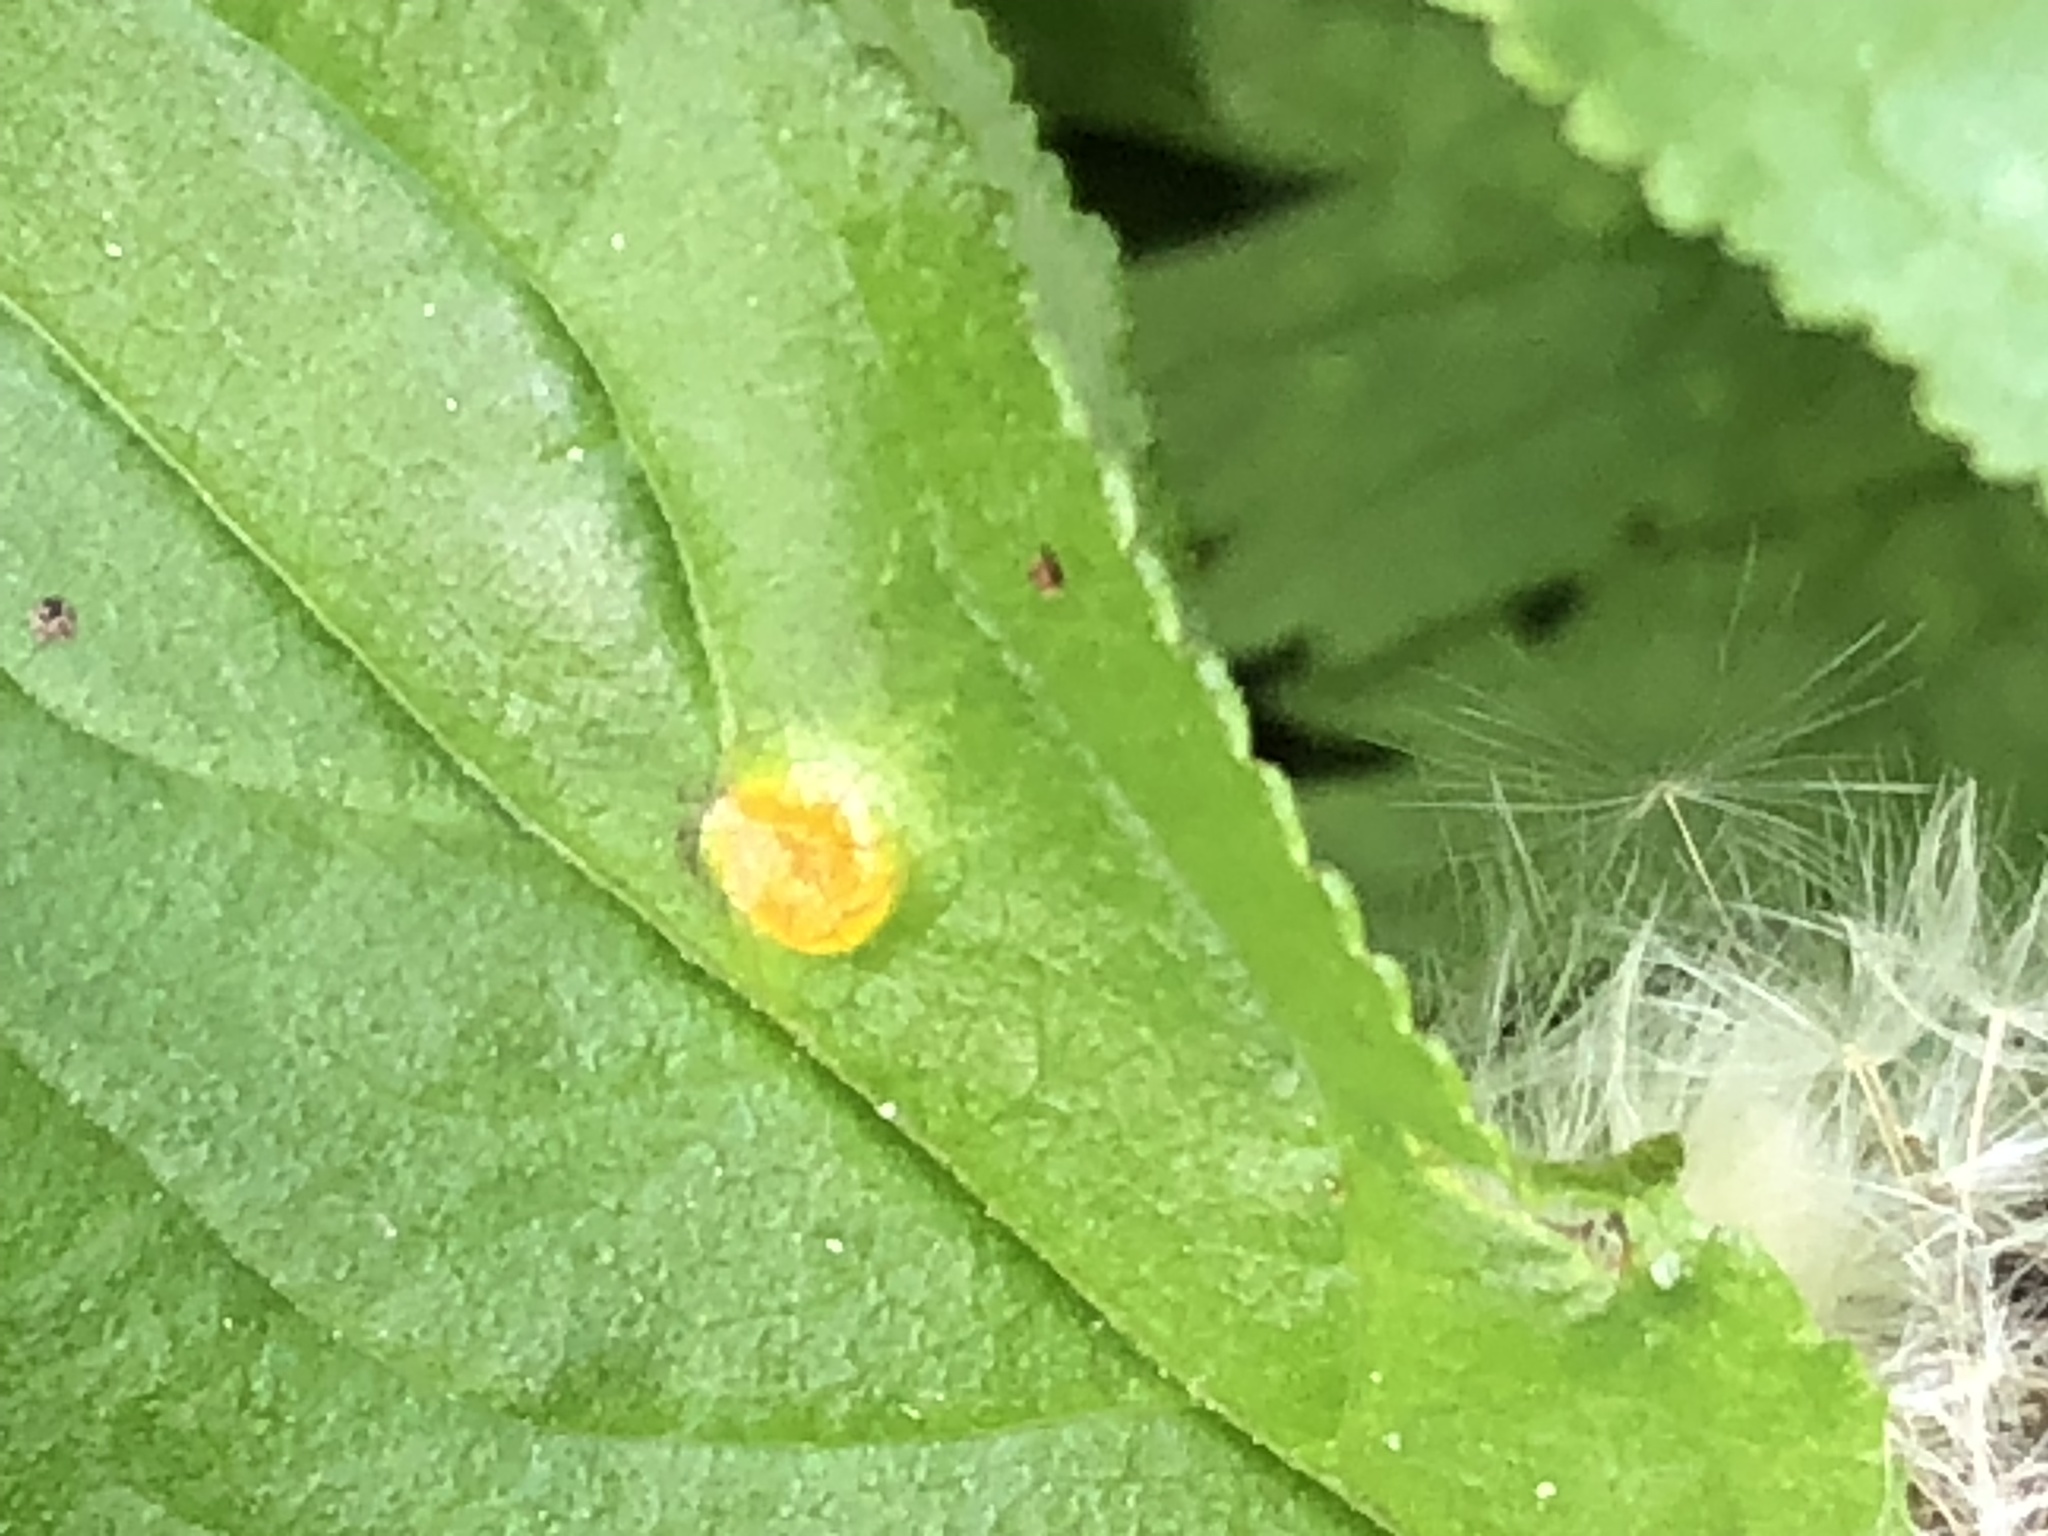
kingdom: Fungi
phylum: Basidiomycota
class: Pucciniomycetes
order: Pucciniales
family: Pucciniaceae
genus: Puccinia
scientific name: Puccinia coronata
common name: Crown rust
